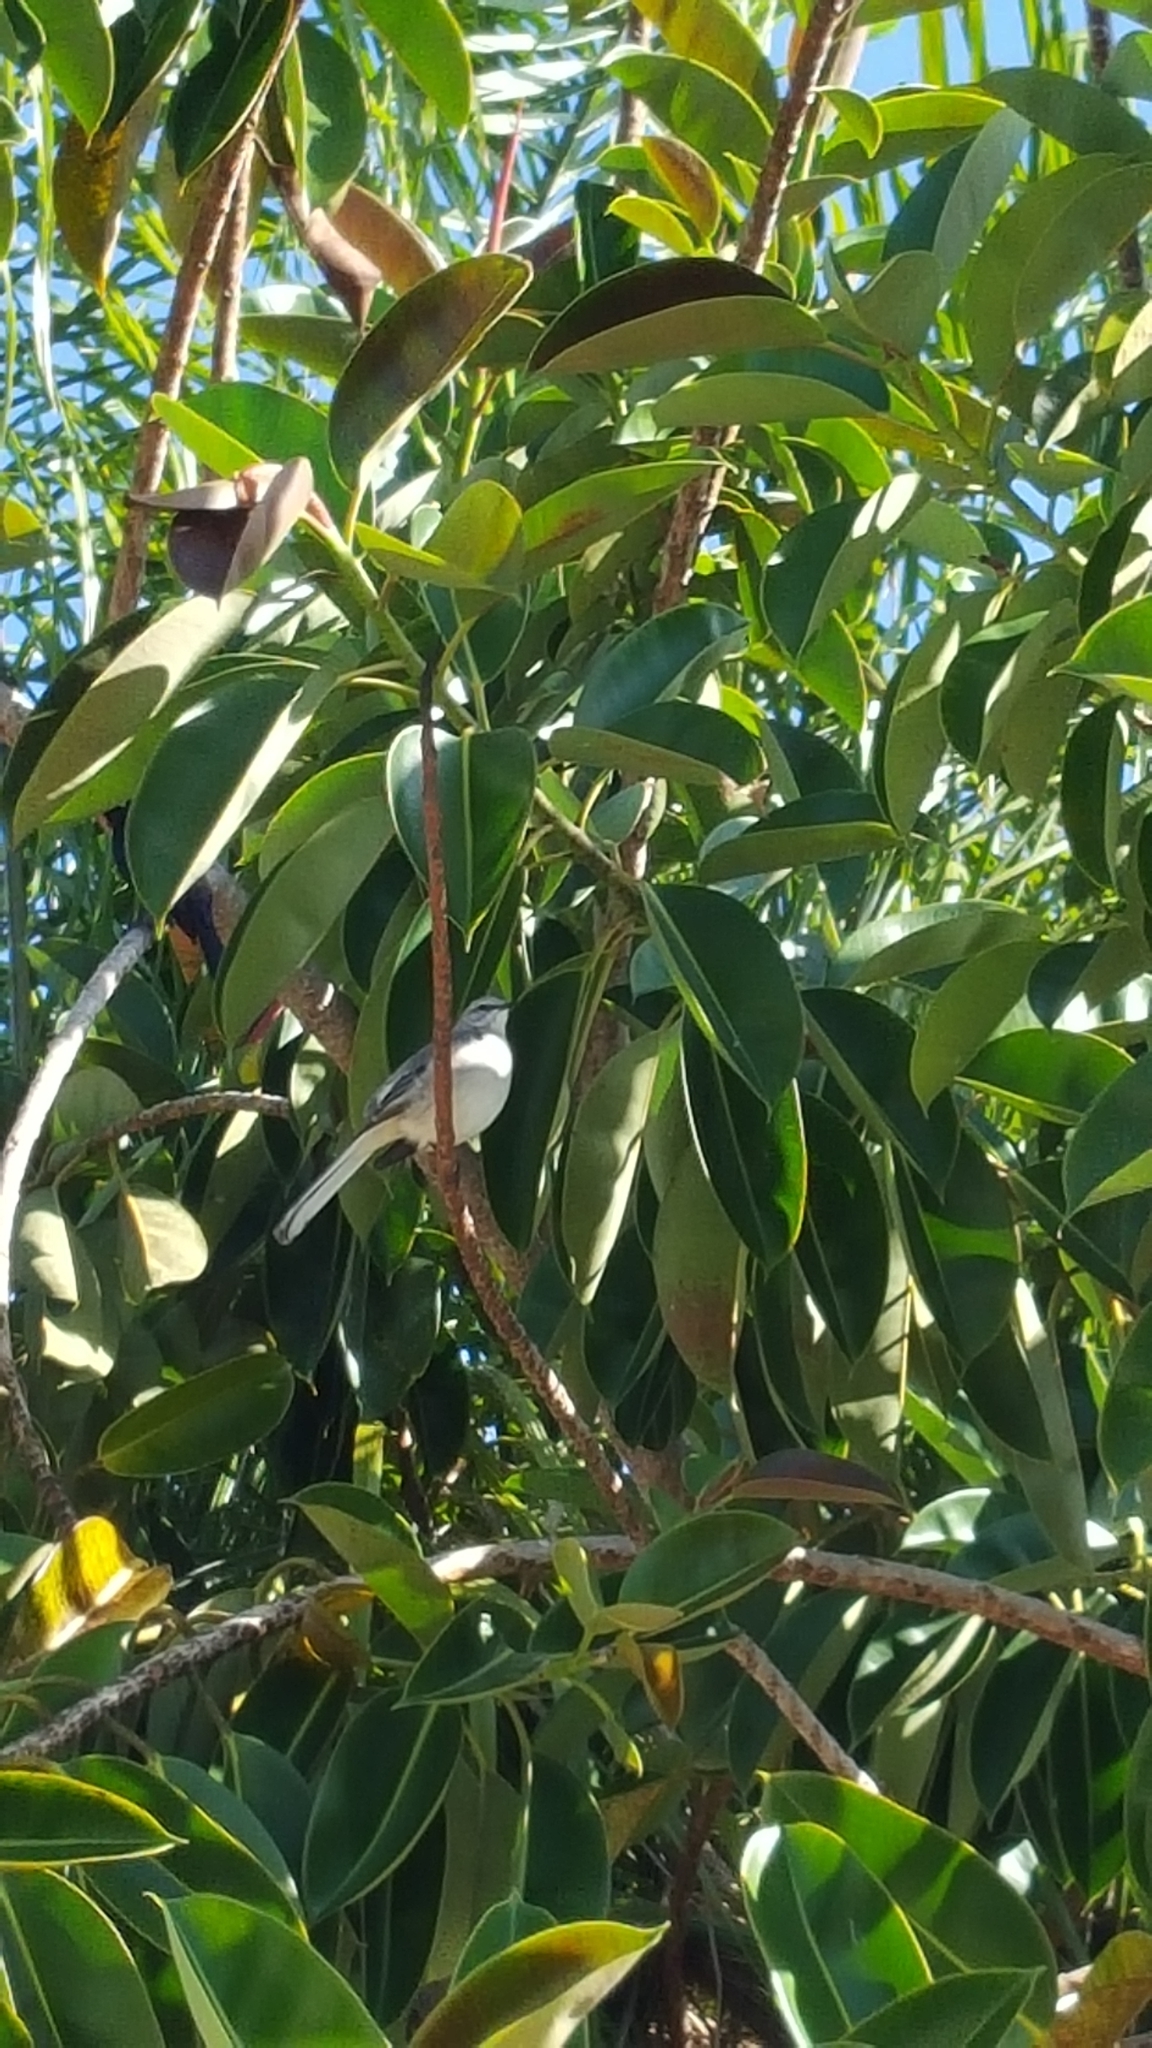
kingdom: Animalia
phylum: Chordata
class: Aves
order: Passeriformes
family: Mimidae
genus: Mimus
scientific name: Mimus polyglottos
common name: Northern mockingbird
